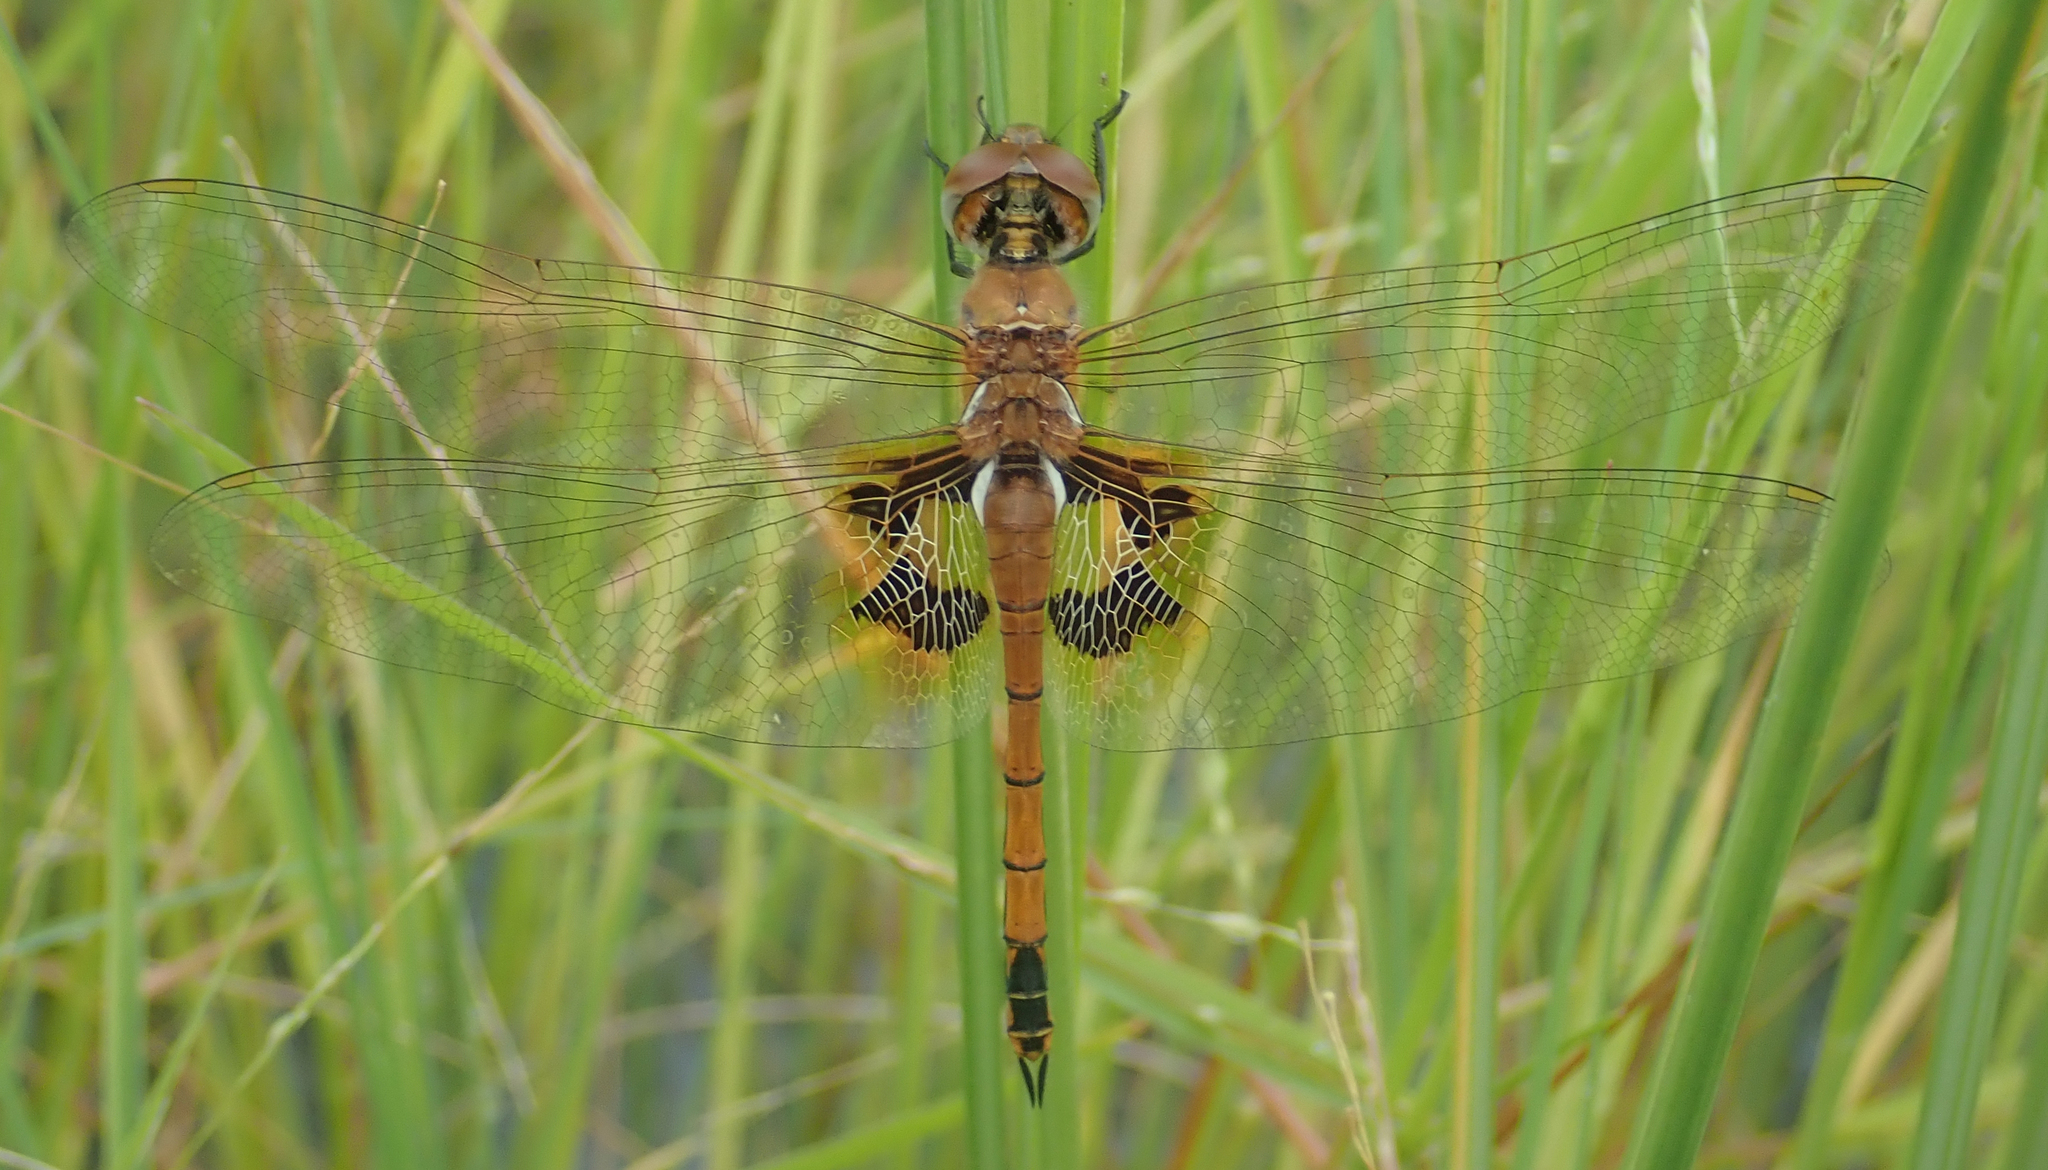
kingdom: Animalia
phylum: Arthropoda
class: Insecta
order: Odonata
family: Libellulidae
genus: Tramea
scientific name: Tramea basilaris
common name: Keyhole glider
